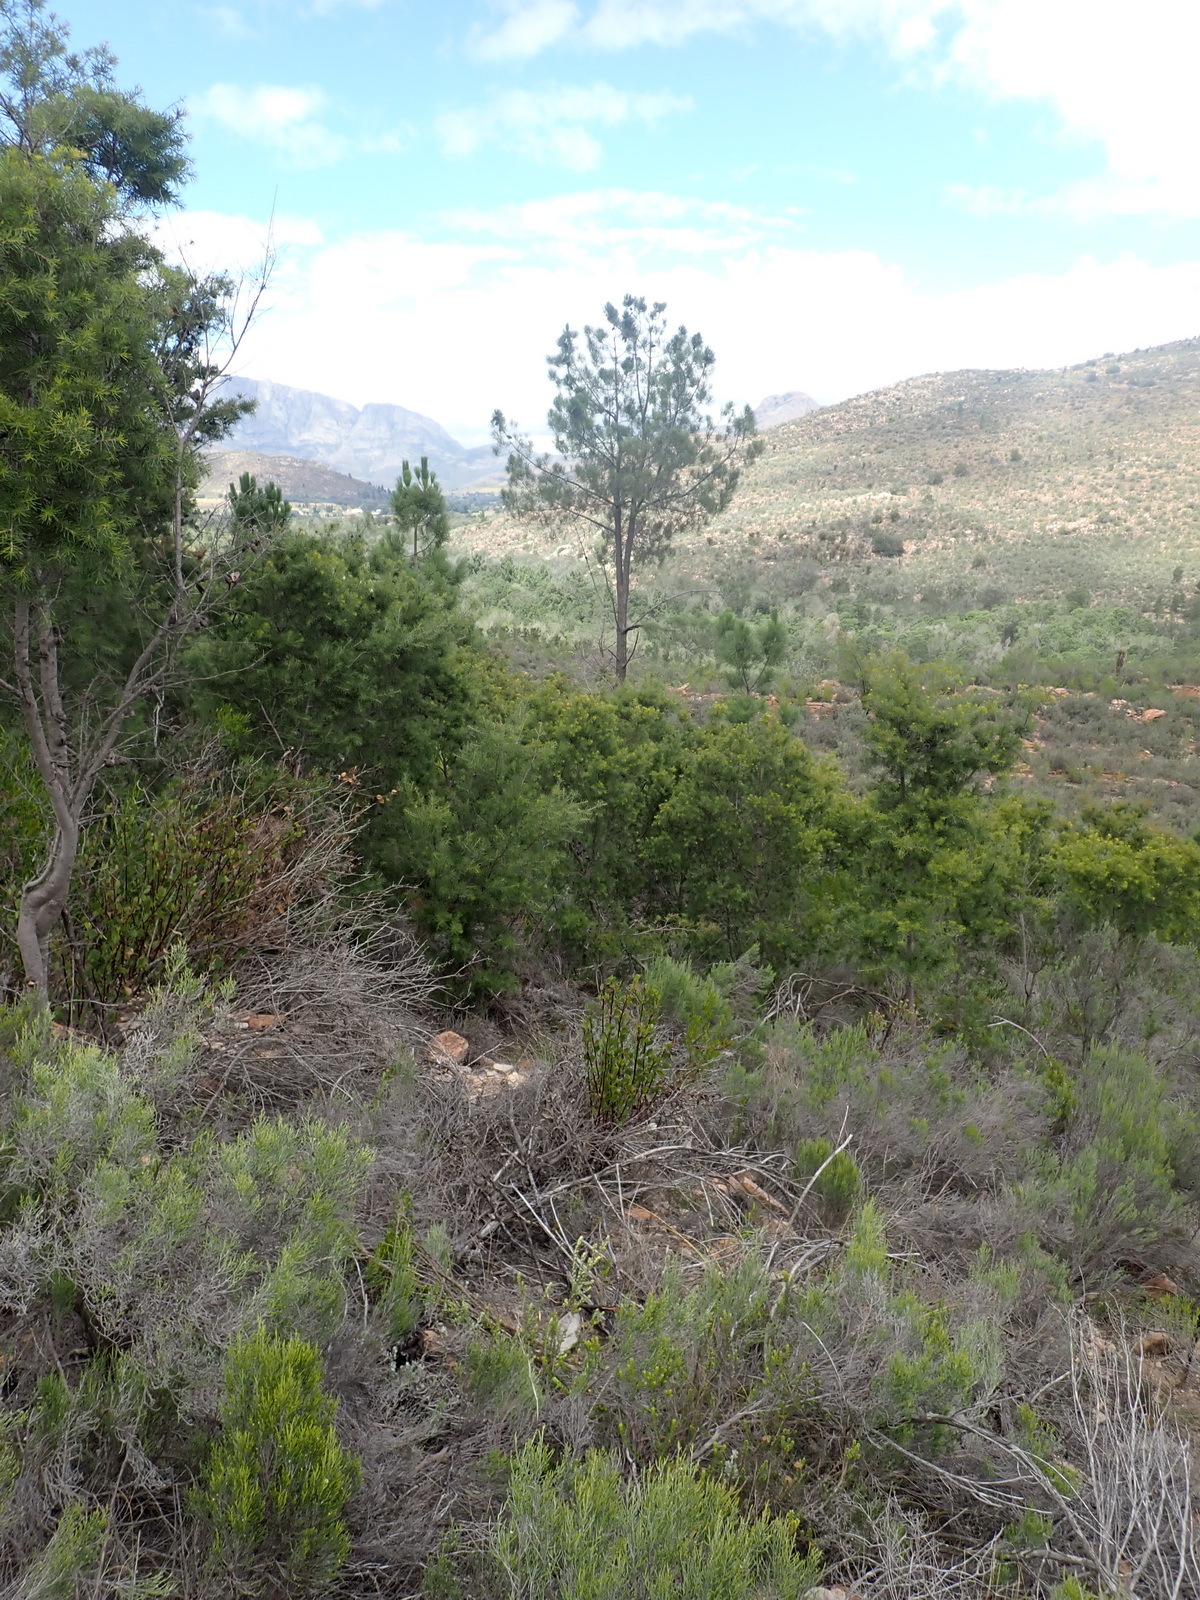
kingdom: Plantae
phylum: Tracheophyta
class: Magnoliopsida
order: Proteales
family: Proteaceae
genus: Hakea
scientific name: Hakea sericea
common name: Needle bush
